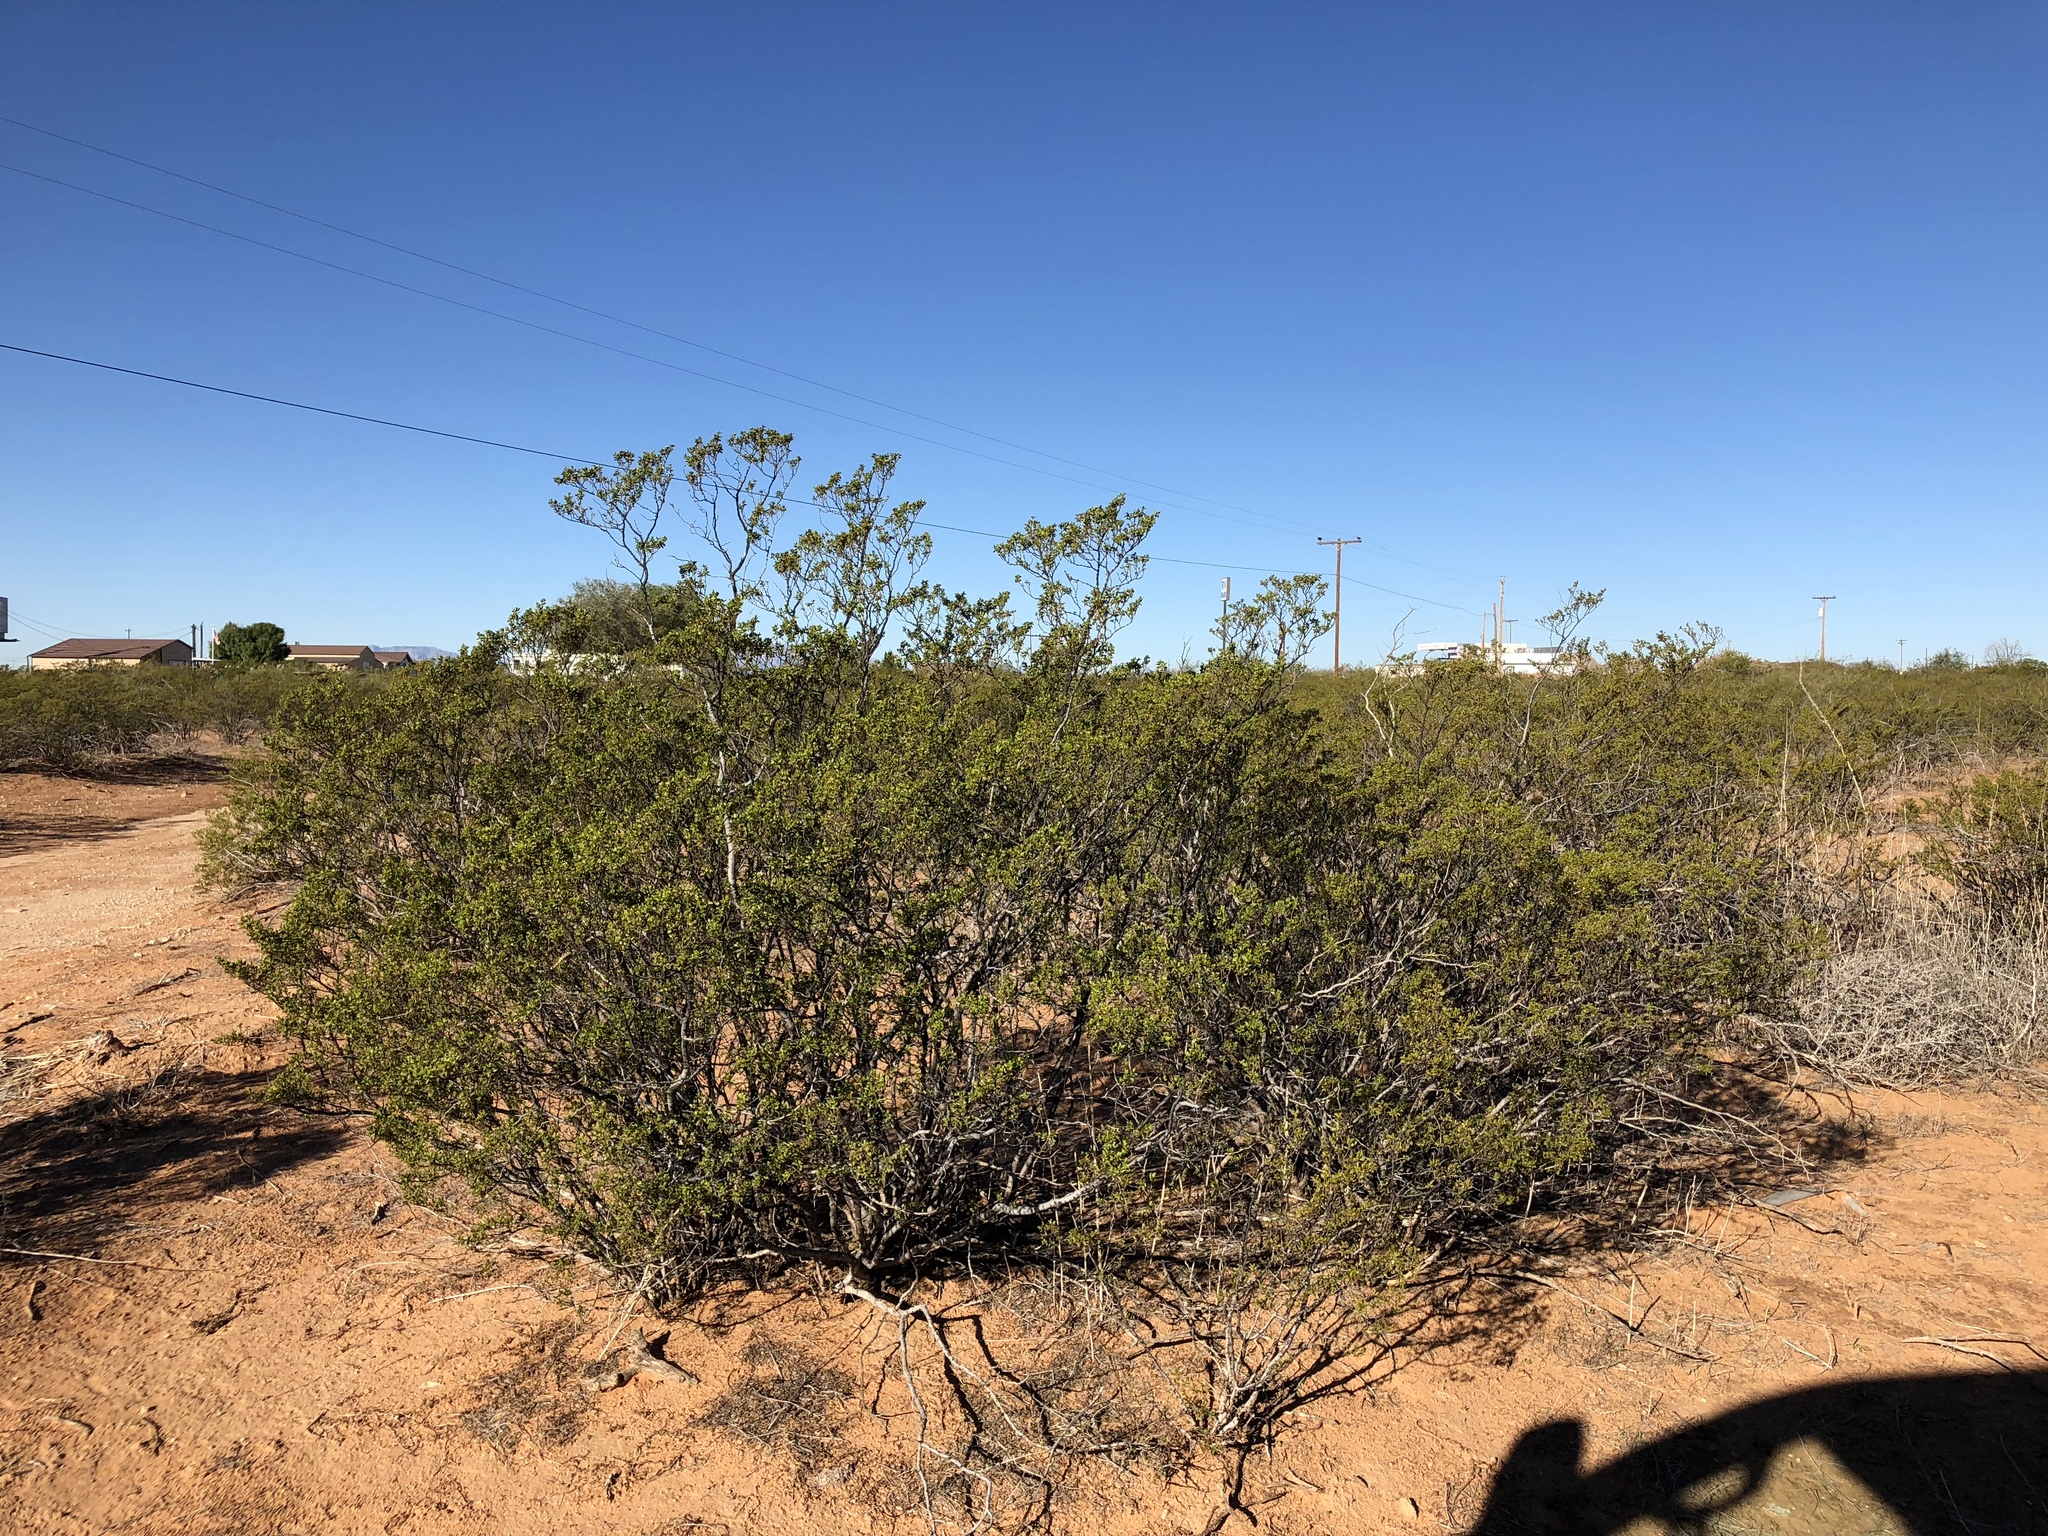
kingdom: Plantae
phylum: Tracheophyta
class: Magnoliopsida
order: Zygophyllales
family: Zygophyllaceae
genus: Larrea
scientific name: Larrea tridentata
